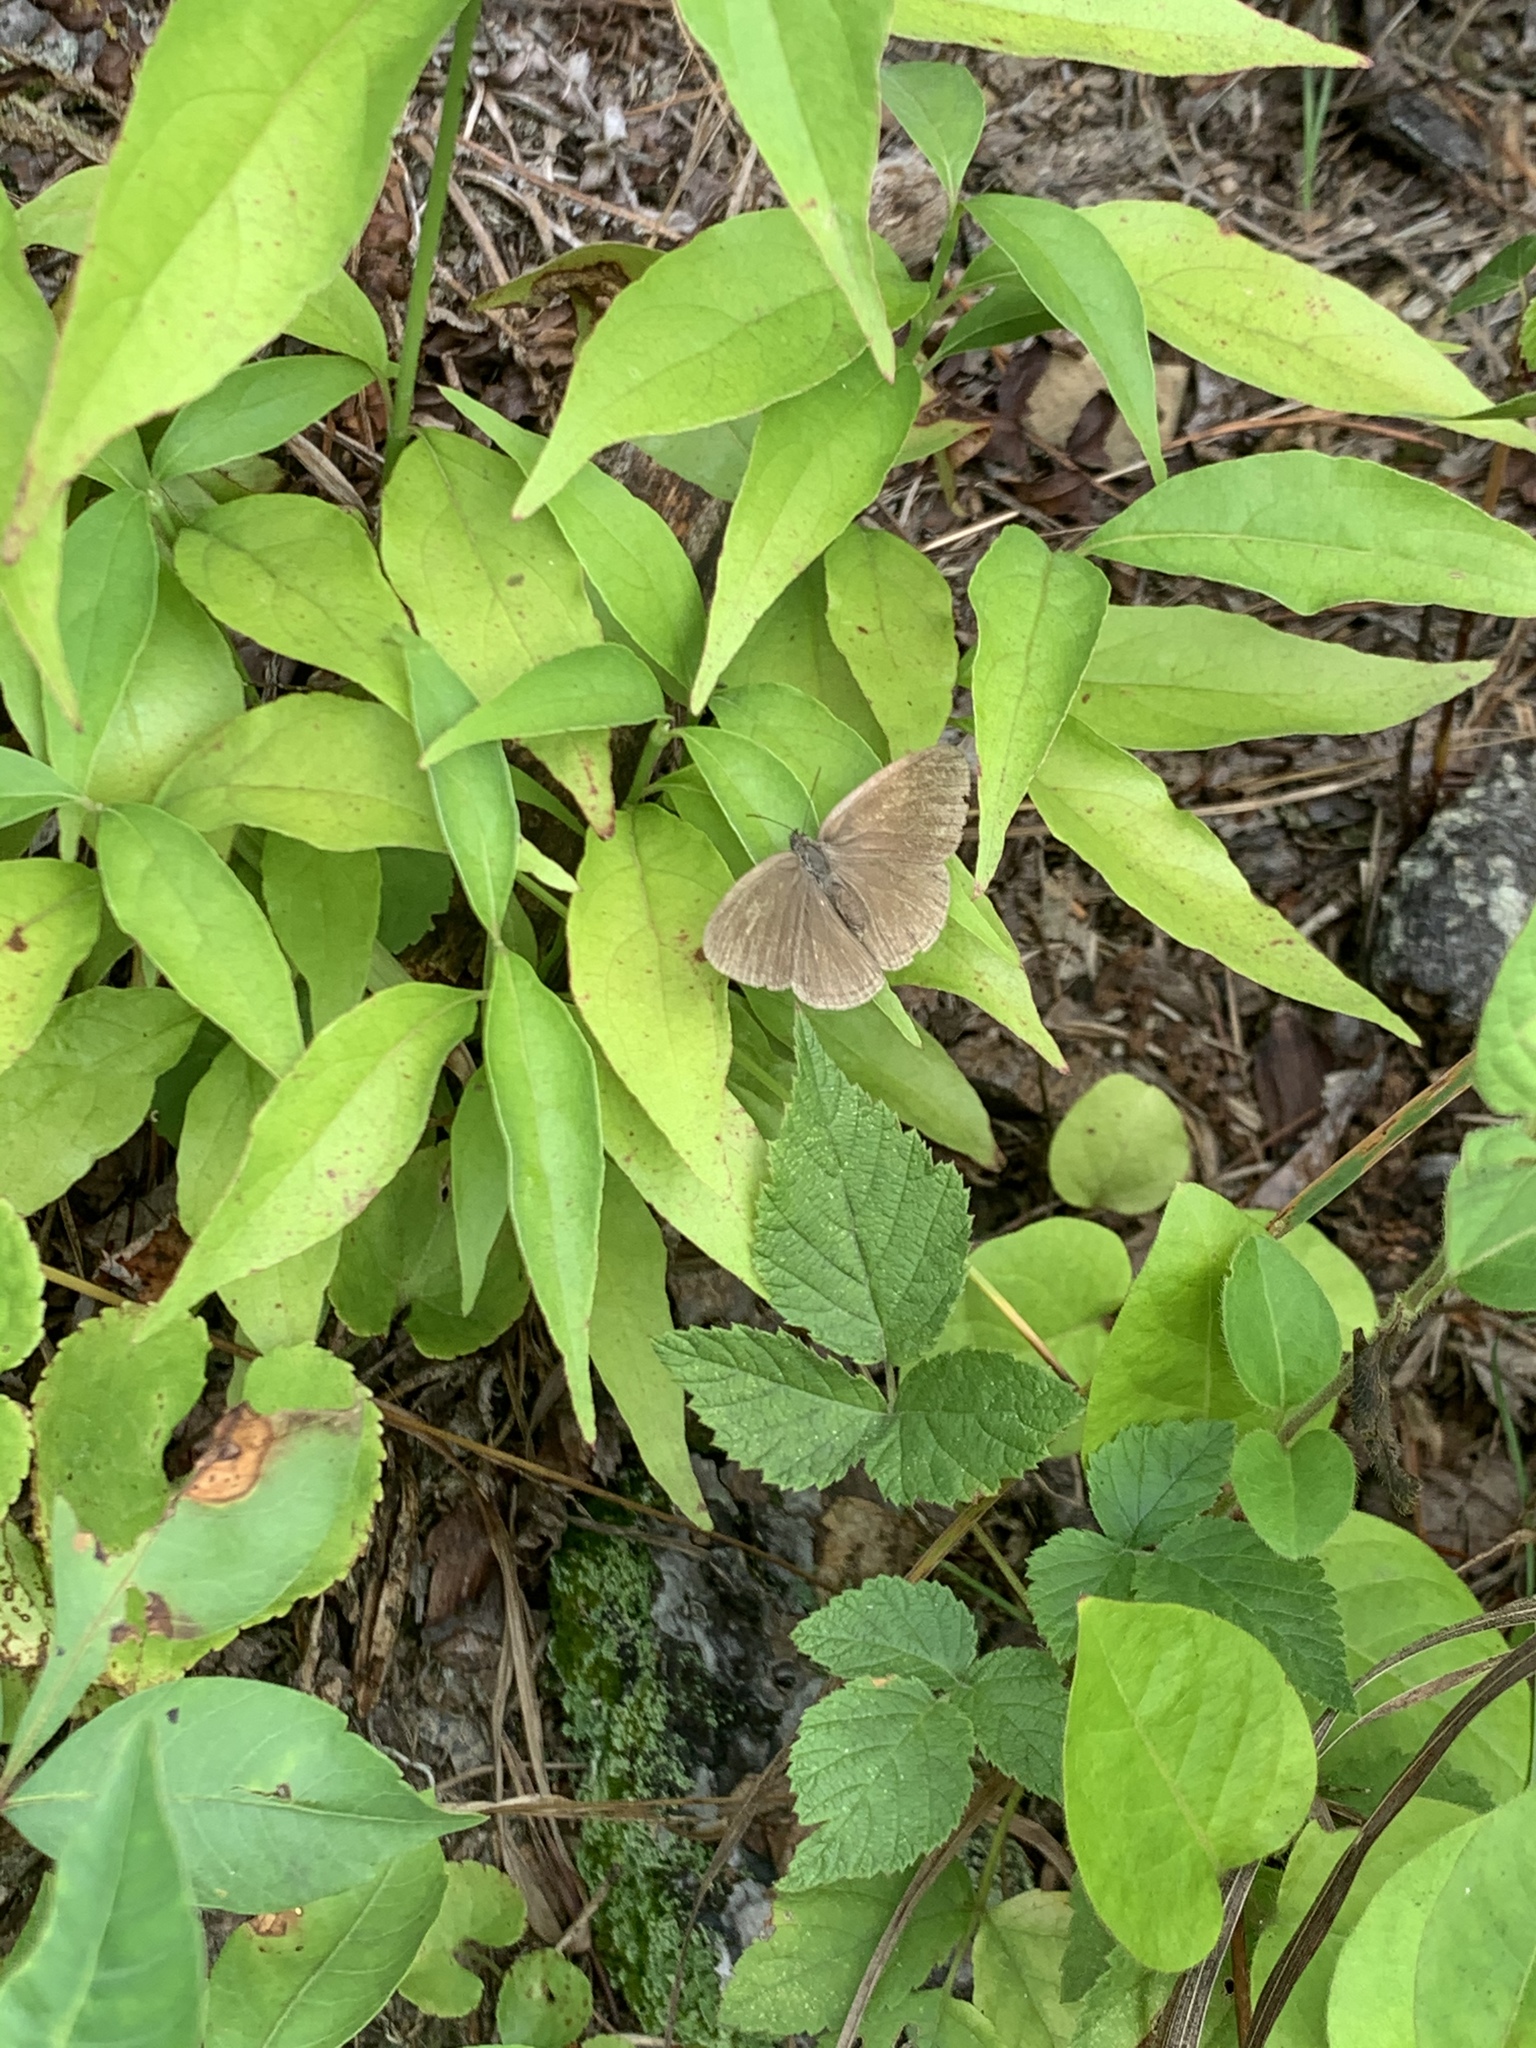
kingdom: Animalia
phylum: Arthropoda
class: Insecta
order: Lepidoptera
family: Nymphalidae
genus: Hermeuptychia
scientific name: Hermeuptychia hermes
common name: Hermes satyr
